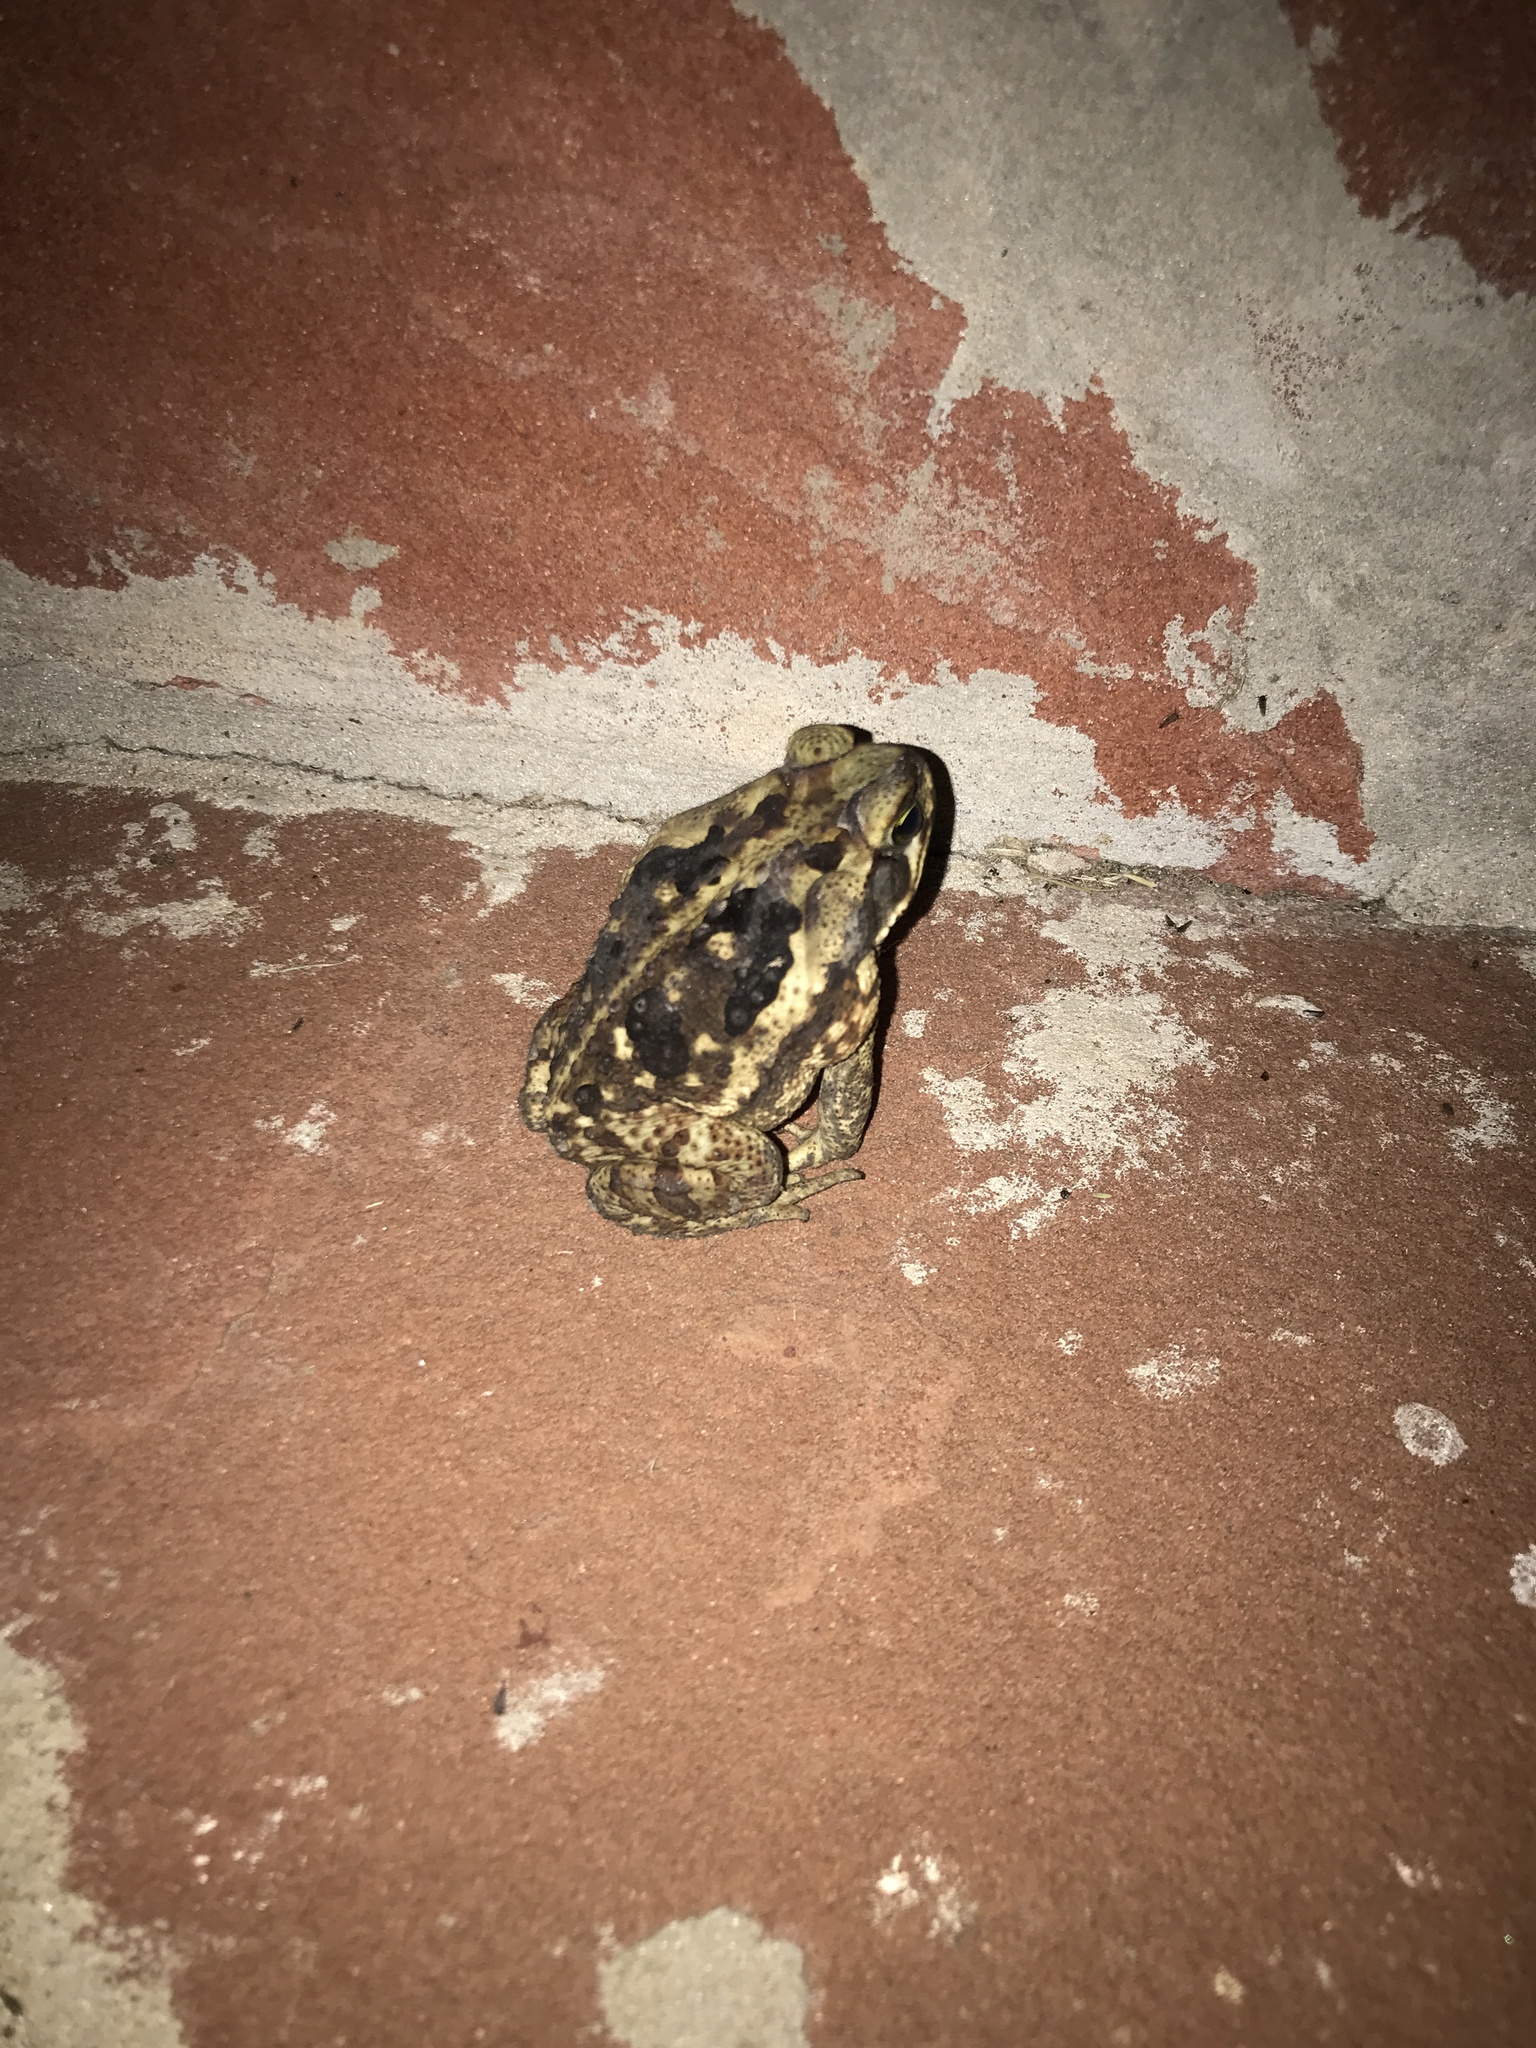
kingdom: Animalia
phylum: Chordata
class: Amphibia
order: Anura
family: Bufonidae
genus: Rhinella
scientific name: Rhinella diptycha
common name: Cope's toad
